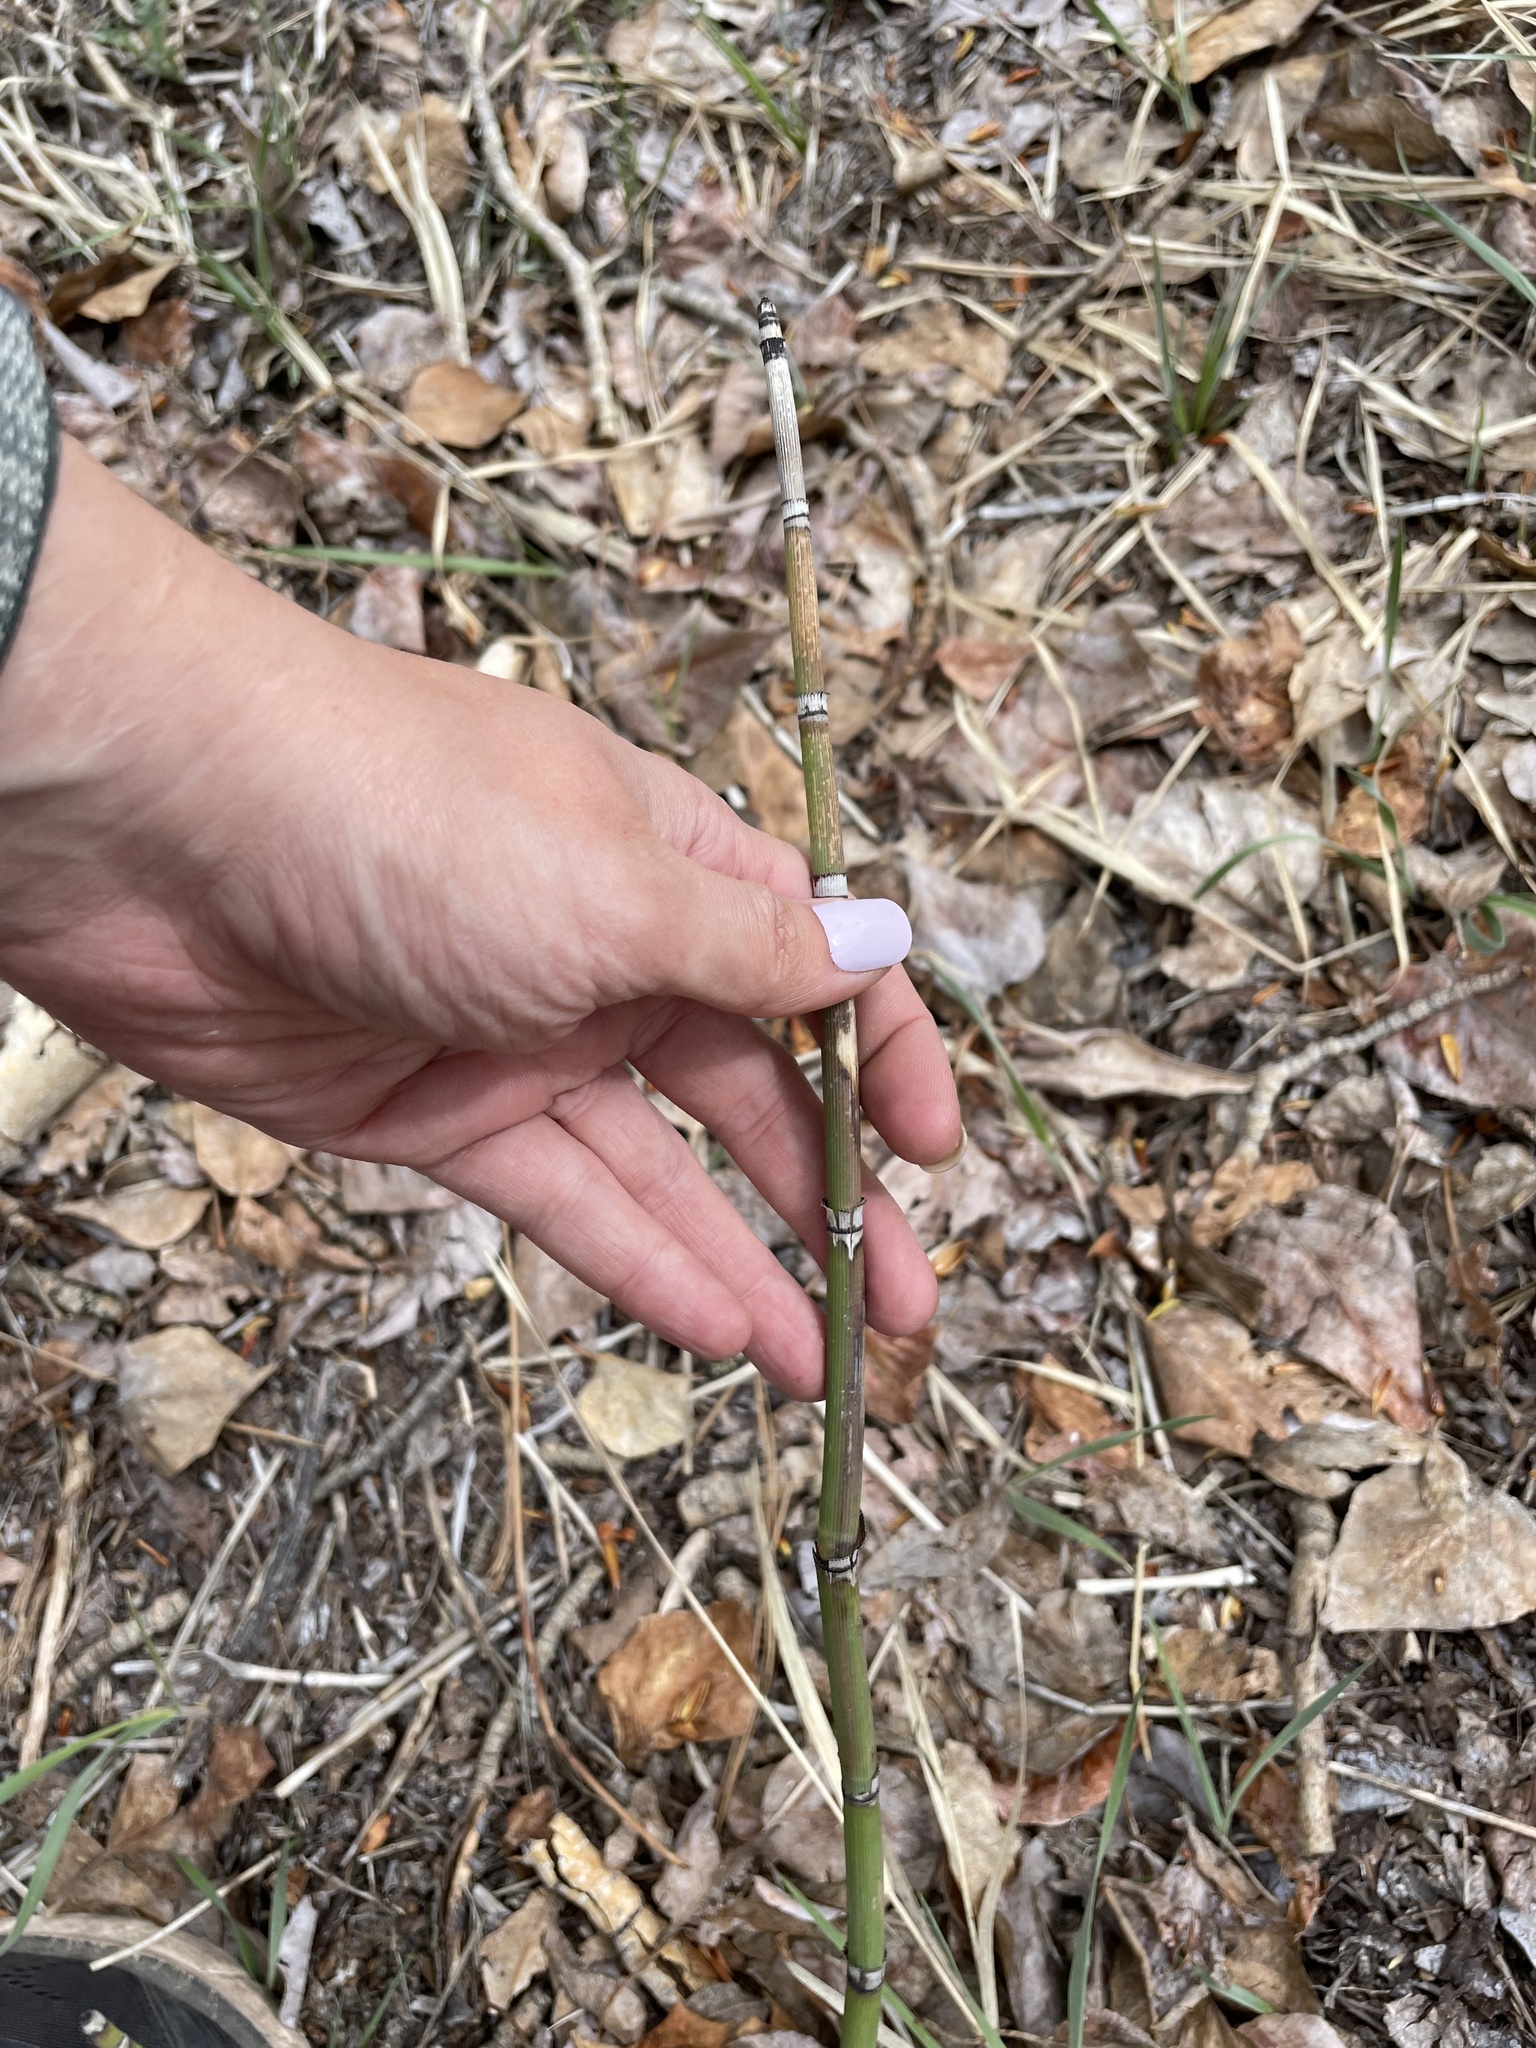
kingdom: Plantae
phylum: Tracheophyta
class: Polypodiopsida
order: Equisetales
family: Equisetaceae
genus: Equisetum
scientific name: Equisetum praealtum
